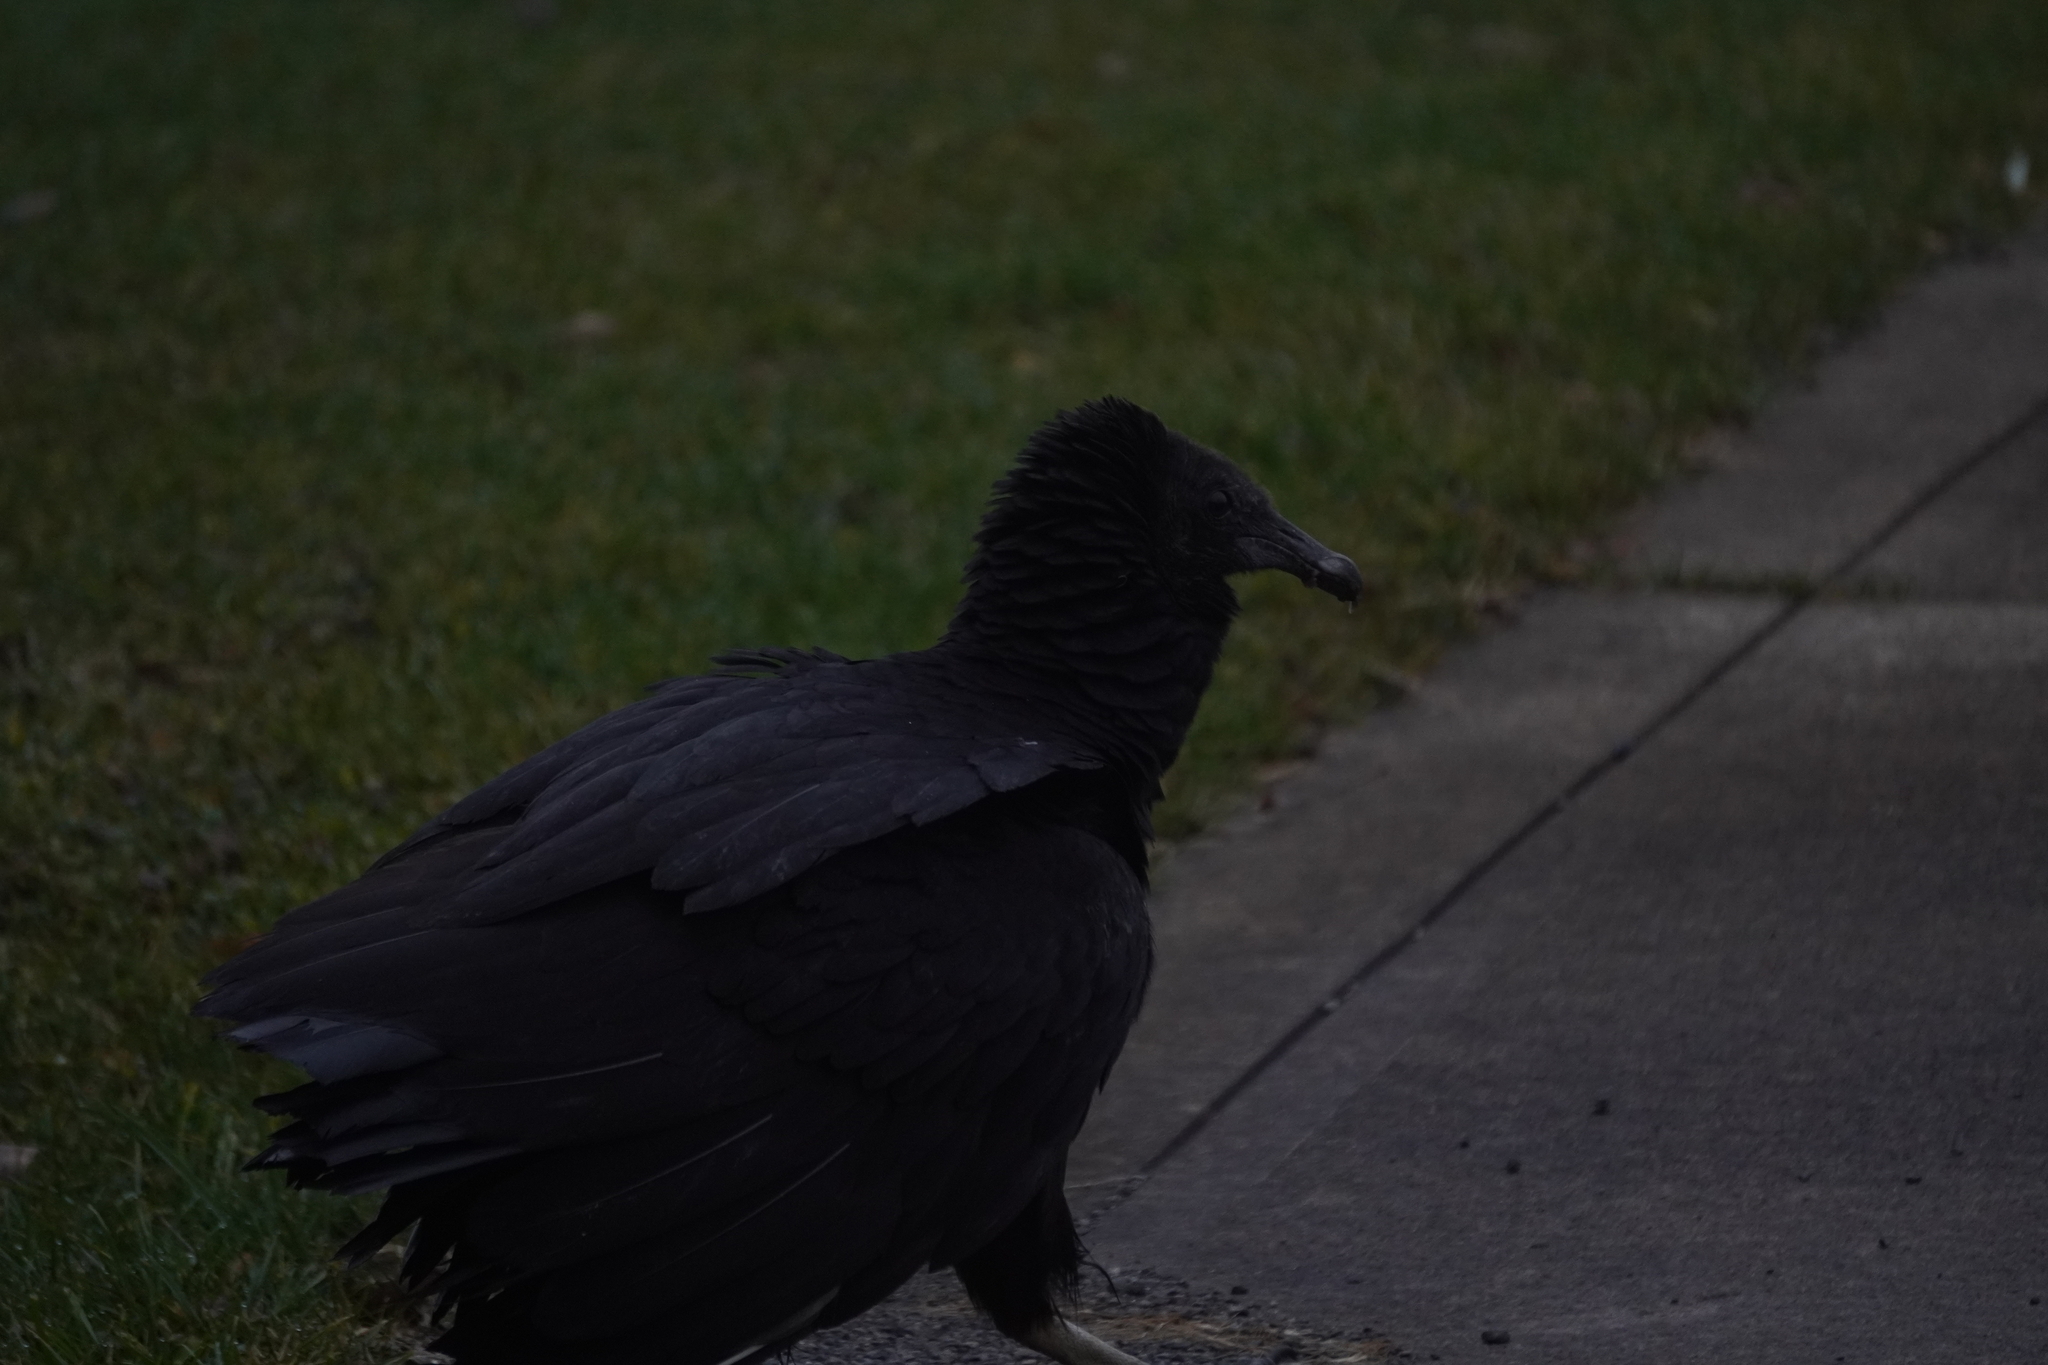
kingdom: Animalia
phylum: Chordata
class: Aves
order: Accipitriformes
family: Cathartidae
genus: Coragyps
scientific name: Coragyps atratus
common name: Black vulture
